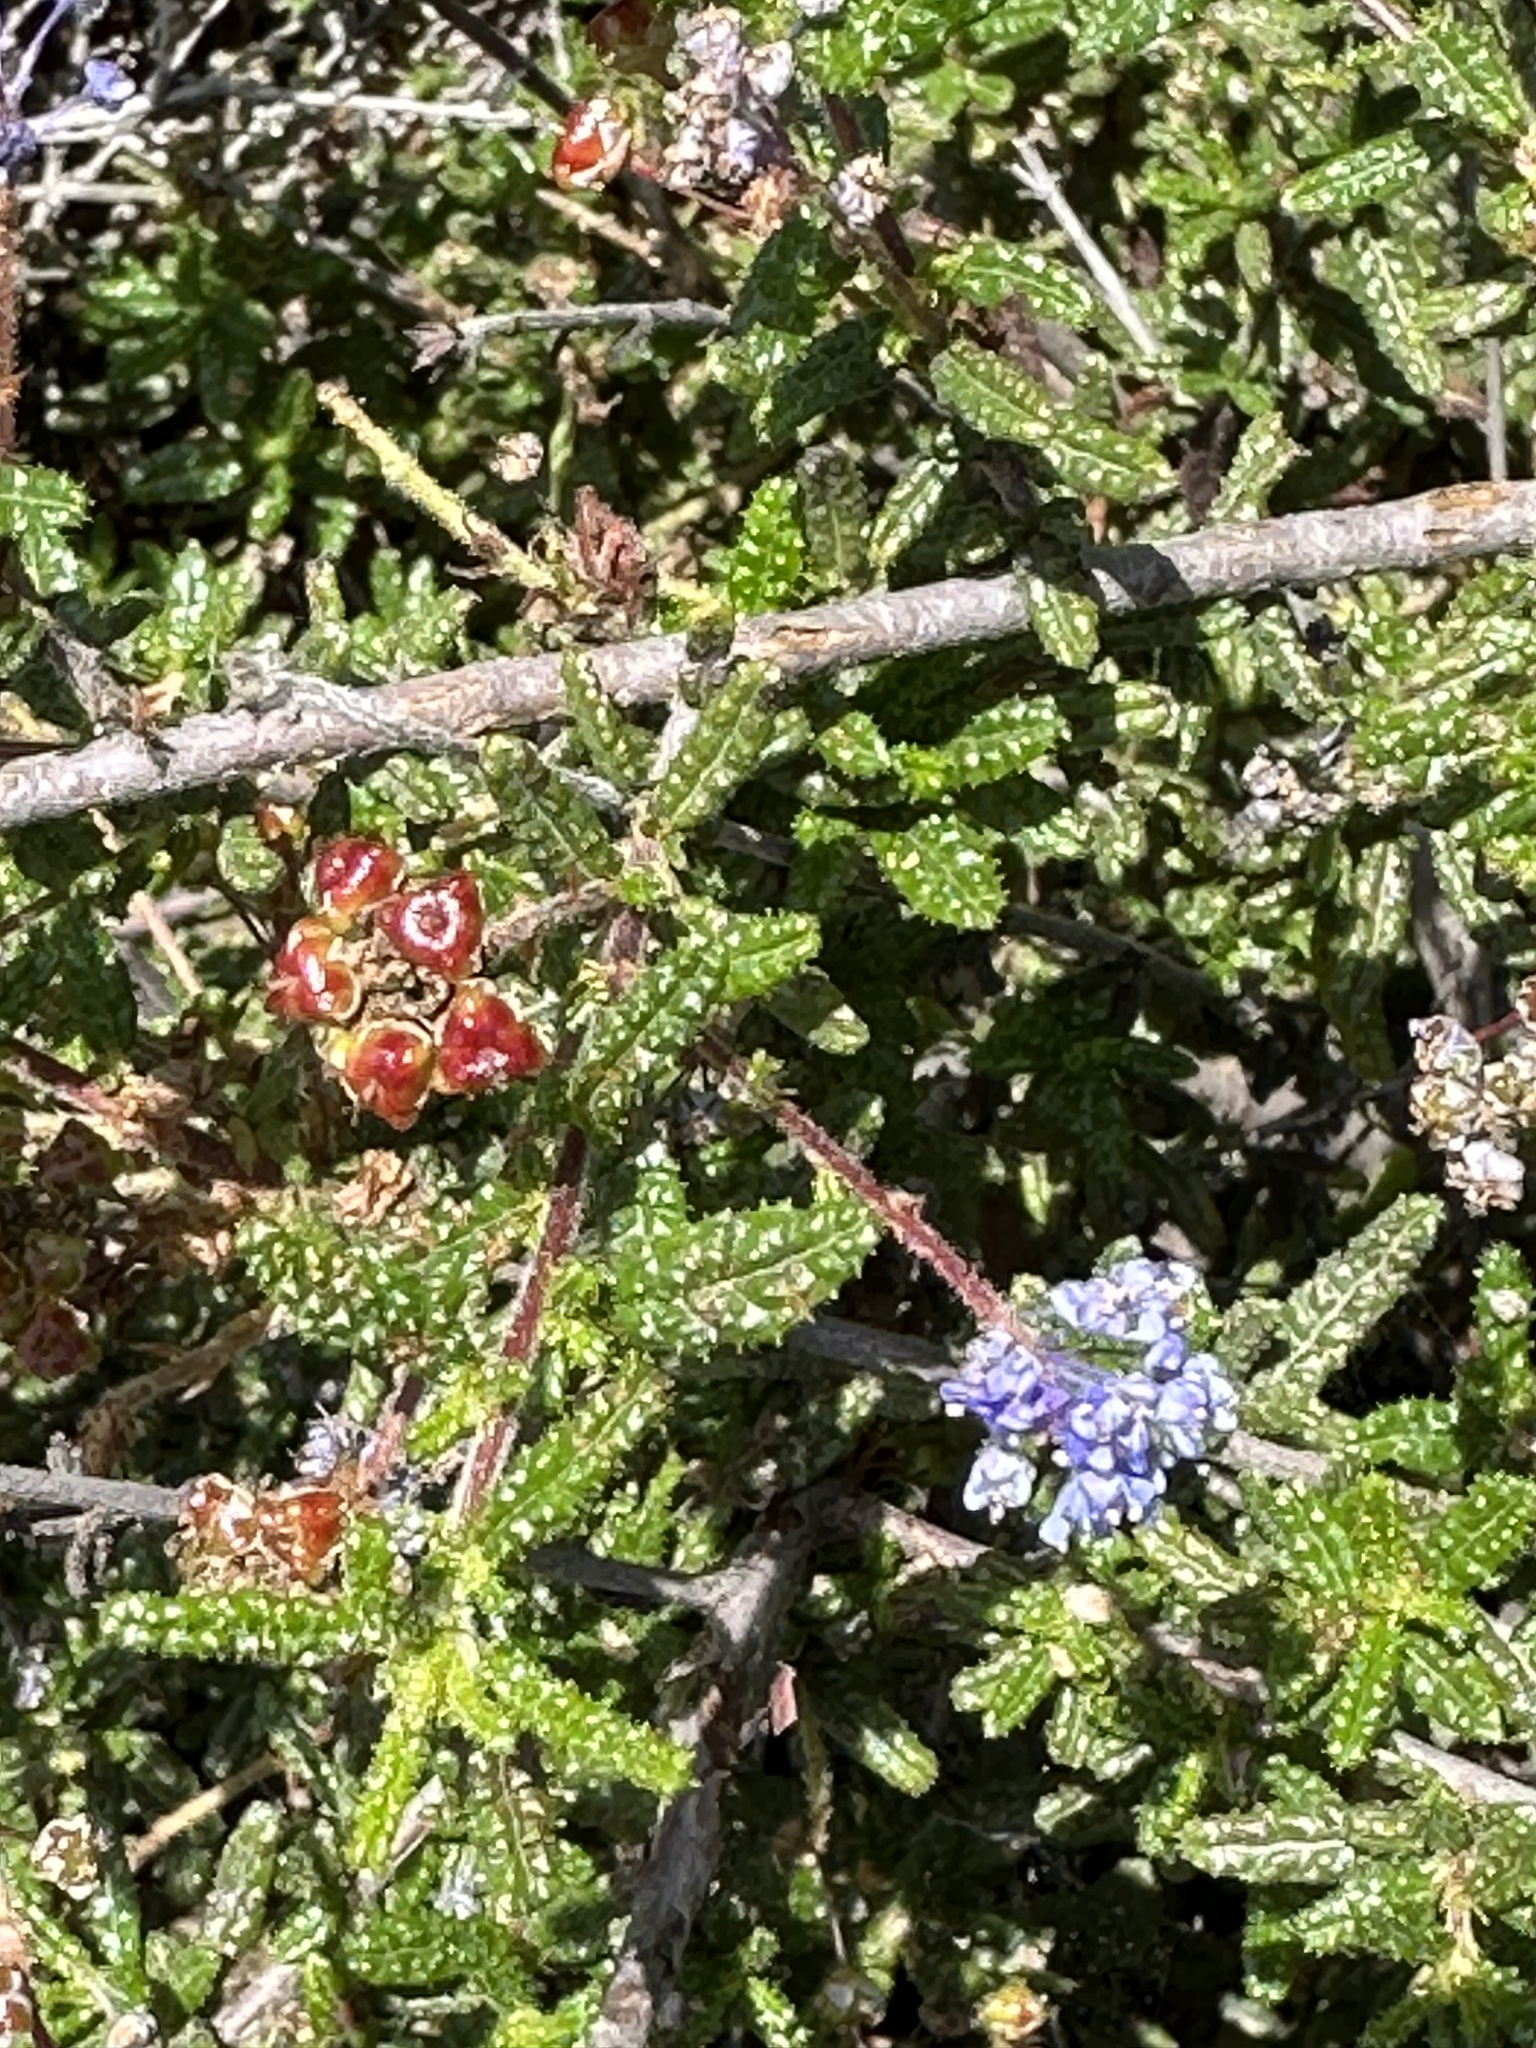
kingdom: Plantae
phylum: Tracheophyta
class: Magnoliopsida
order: Rosales
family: Rhamnaceae
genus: Ceanothus
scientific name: Ceanothus papillosus
